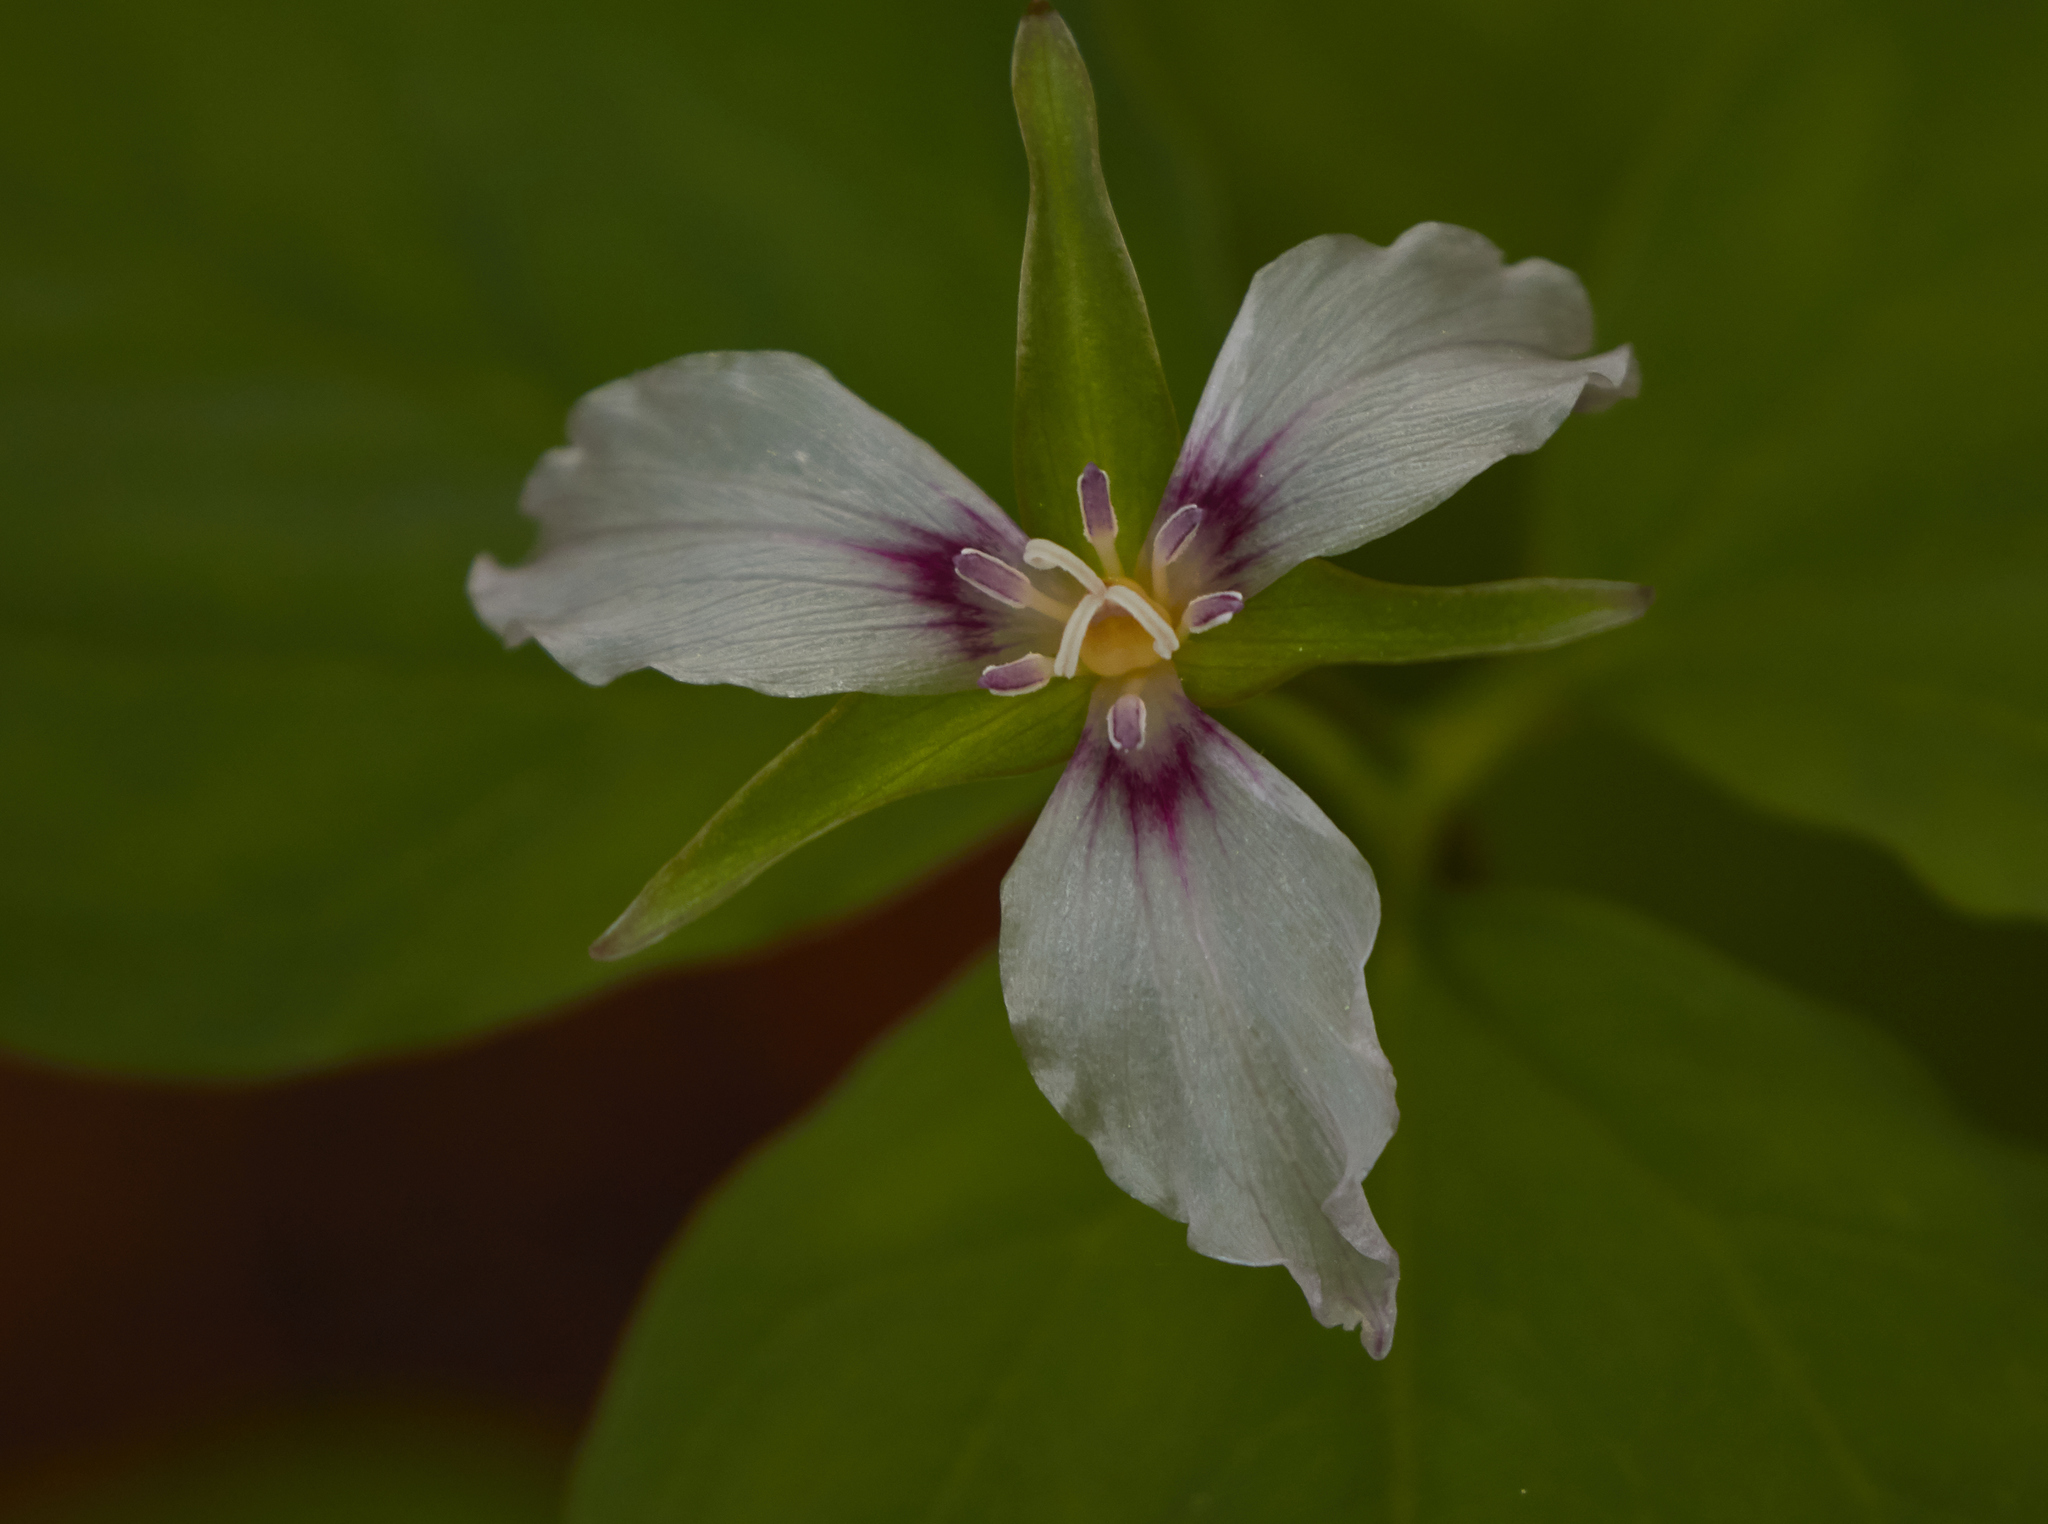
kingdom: Plantae
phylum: Tracheophyta
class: Liliopsida
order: Liliales
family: Melanthiaceae
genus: Trillium
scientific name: Trillium undulatum
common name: Paint trillium
